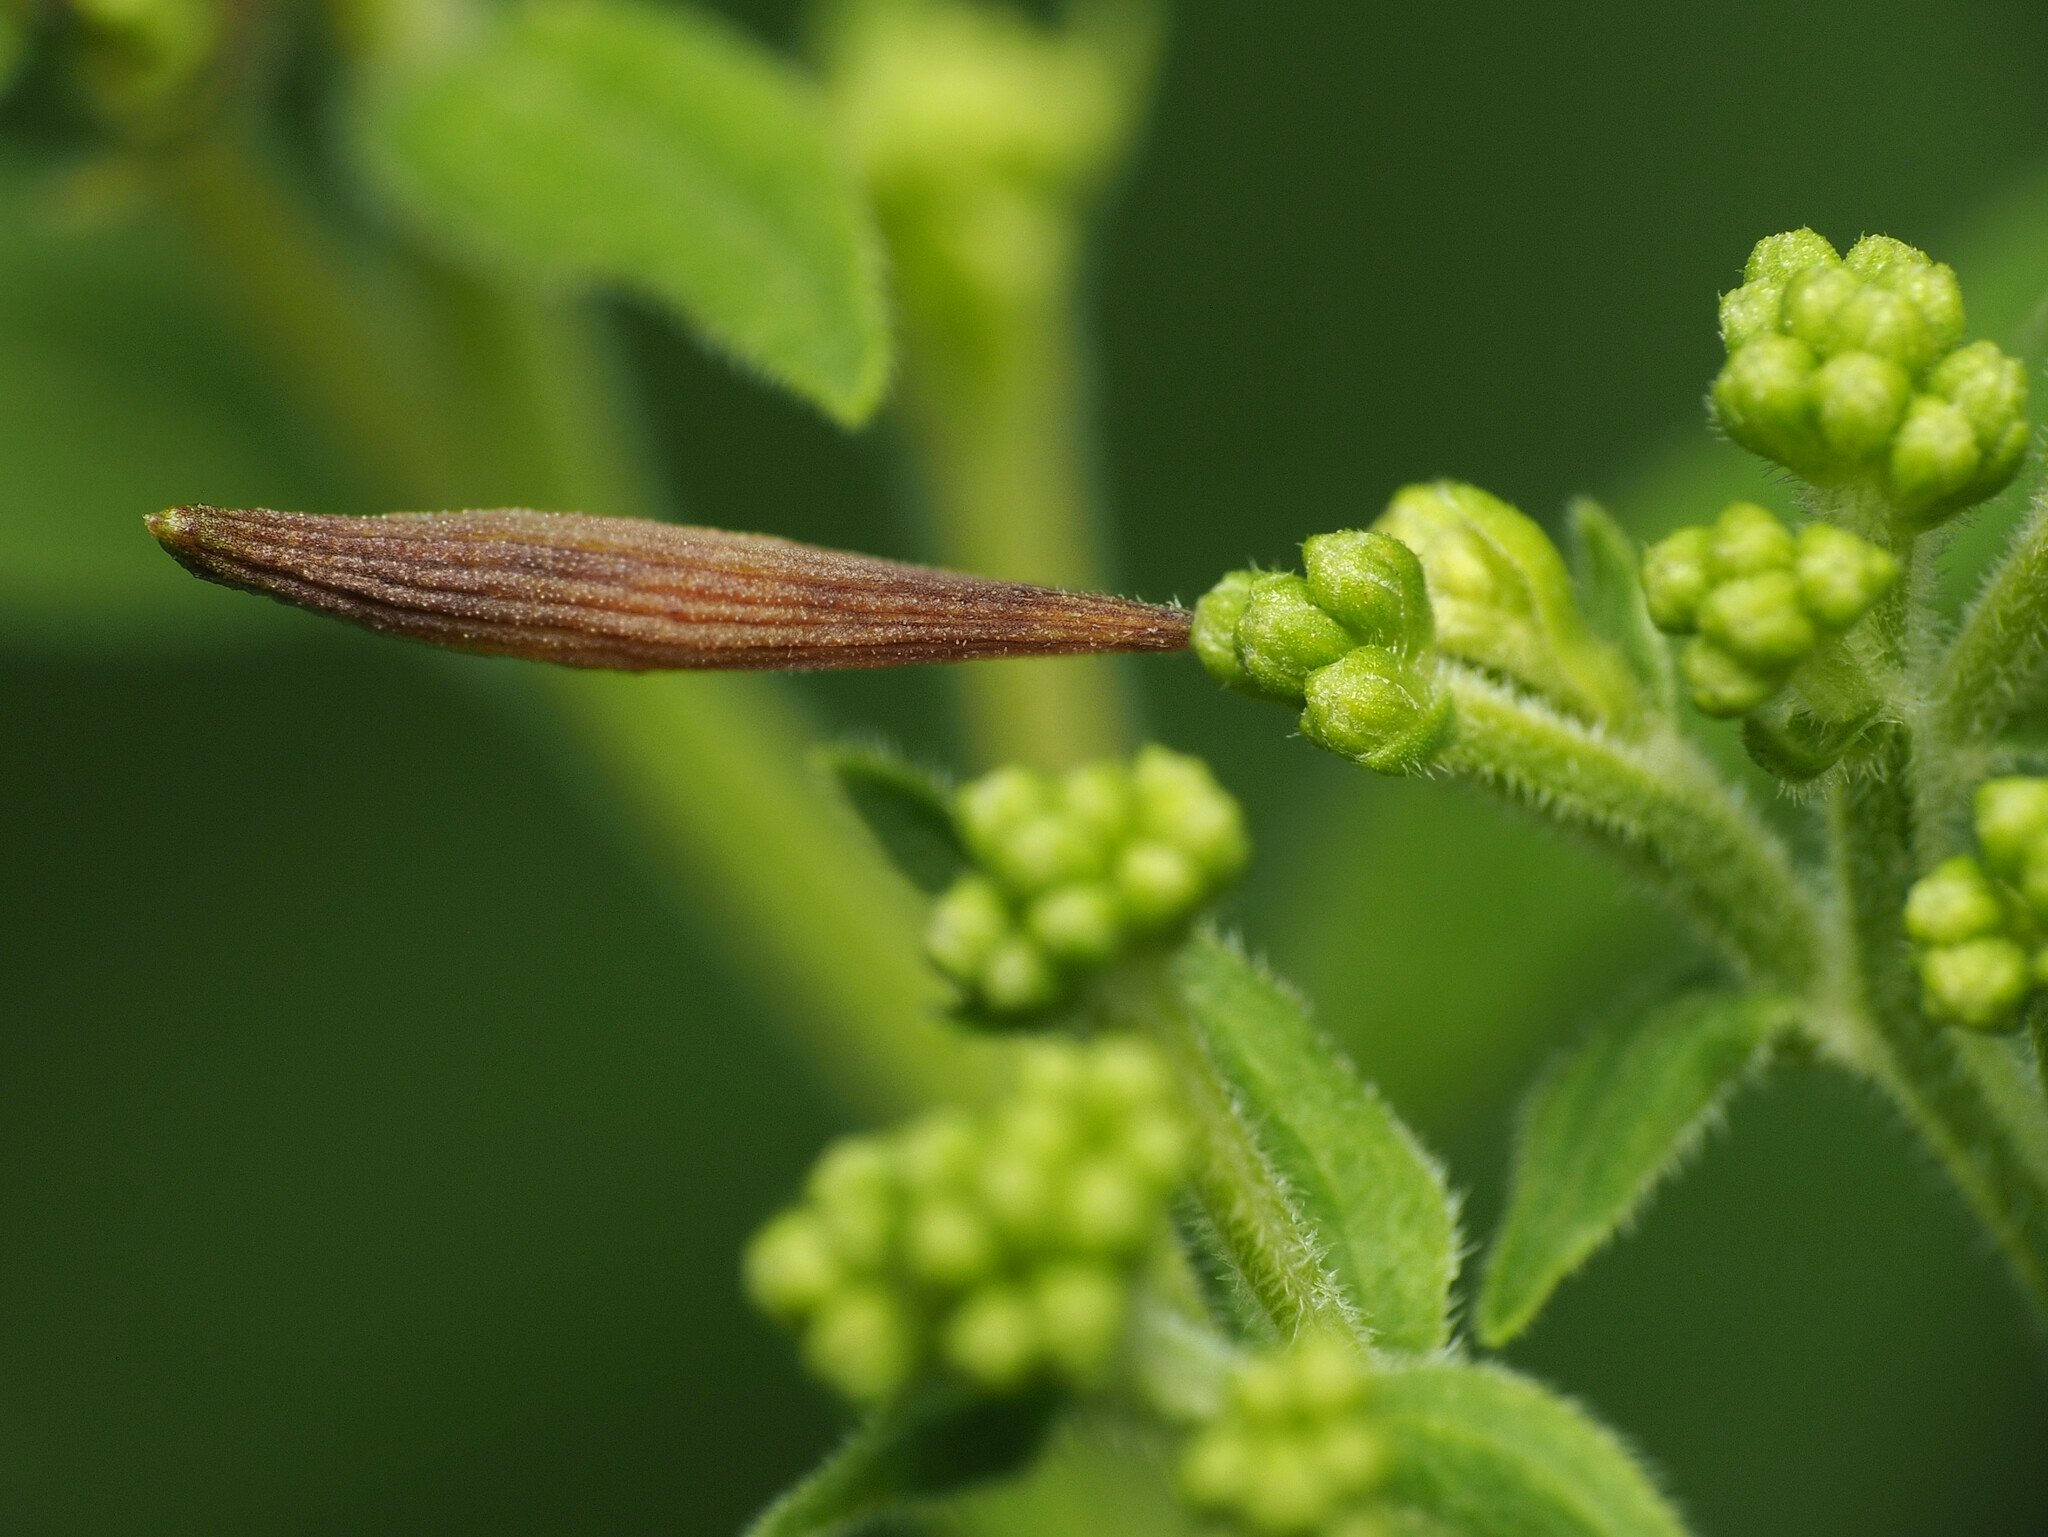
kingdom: Animalia
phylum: Arthropoda
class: Insecta
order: Diptera
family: Cecidomyiidae
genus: Rhopalomyia
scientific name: Rhopalomyia pedicellata
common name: Goldentop pedicellate gall midge
